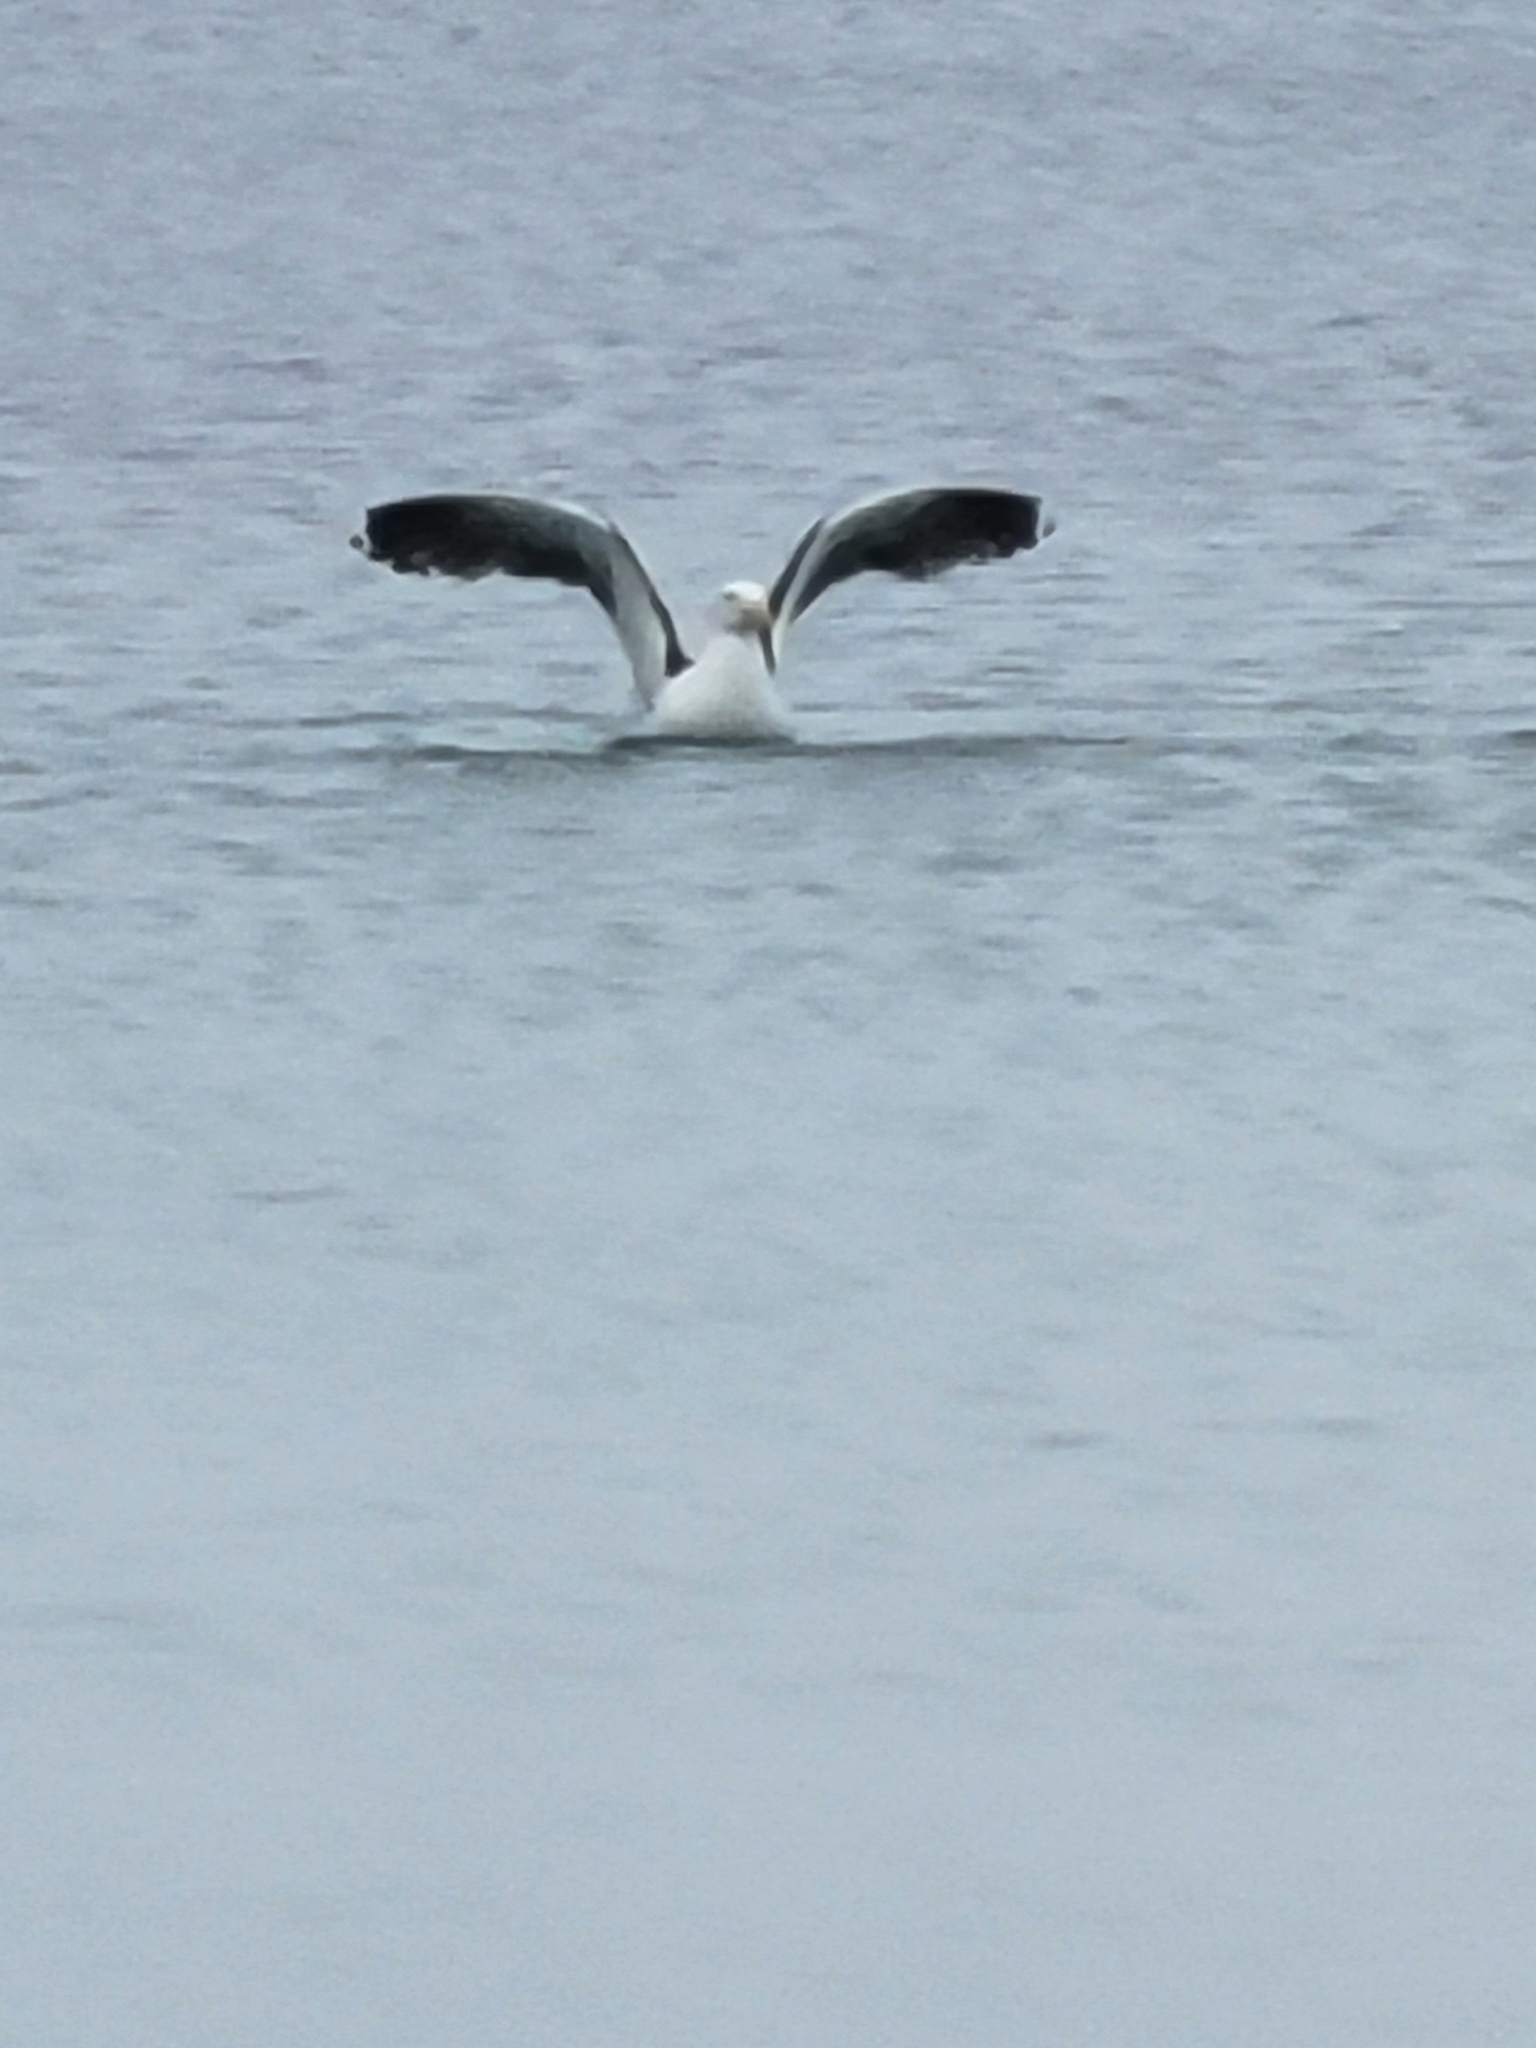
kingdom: Animalia
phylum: Chordata
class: Aves
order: Charadriiformes
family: Laridae
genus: Larus
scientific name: Larus marinus
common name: Great black-backed gull
